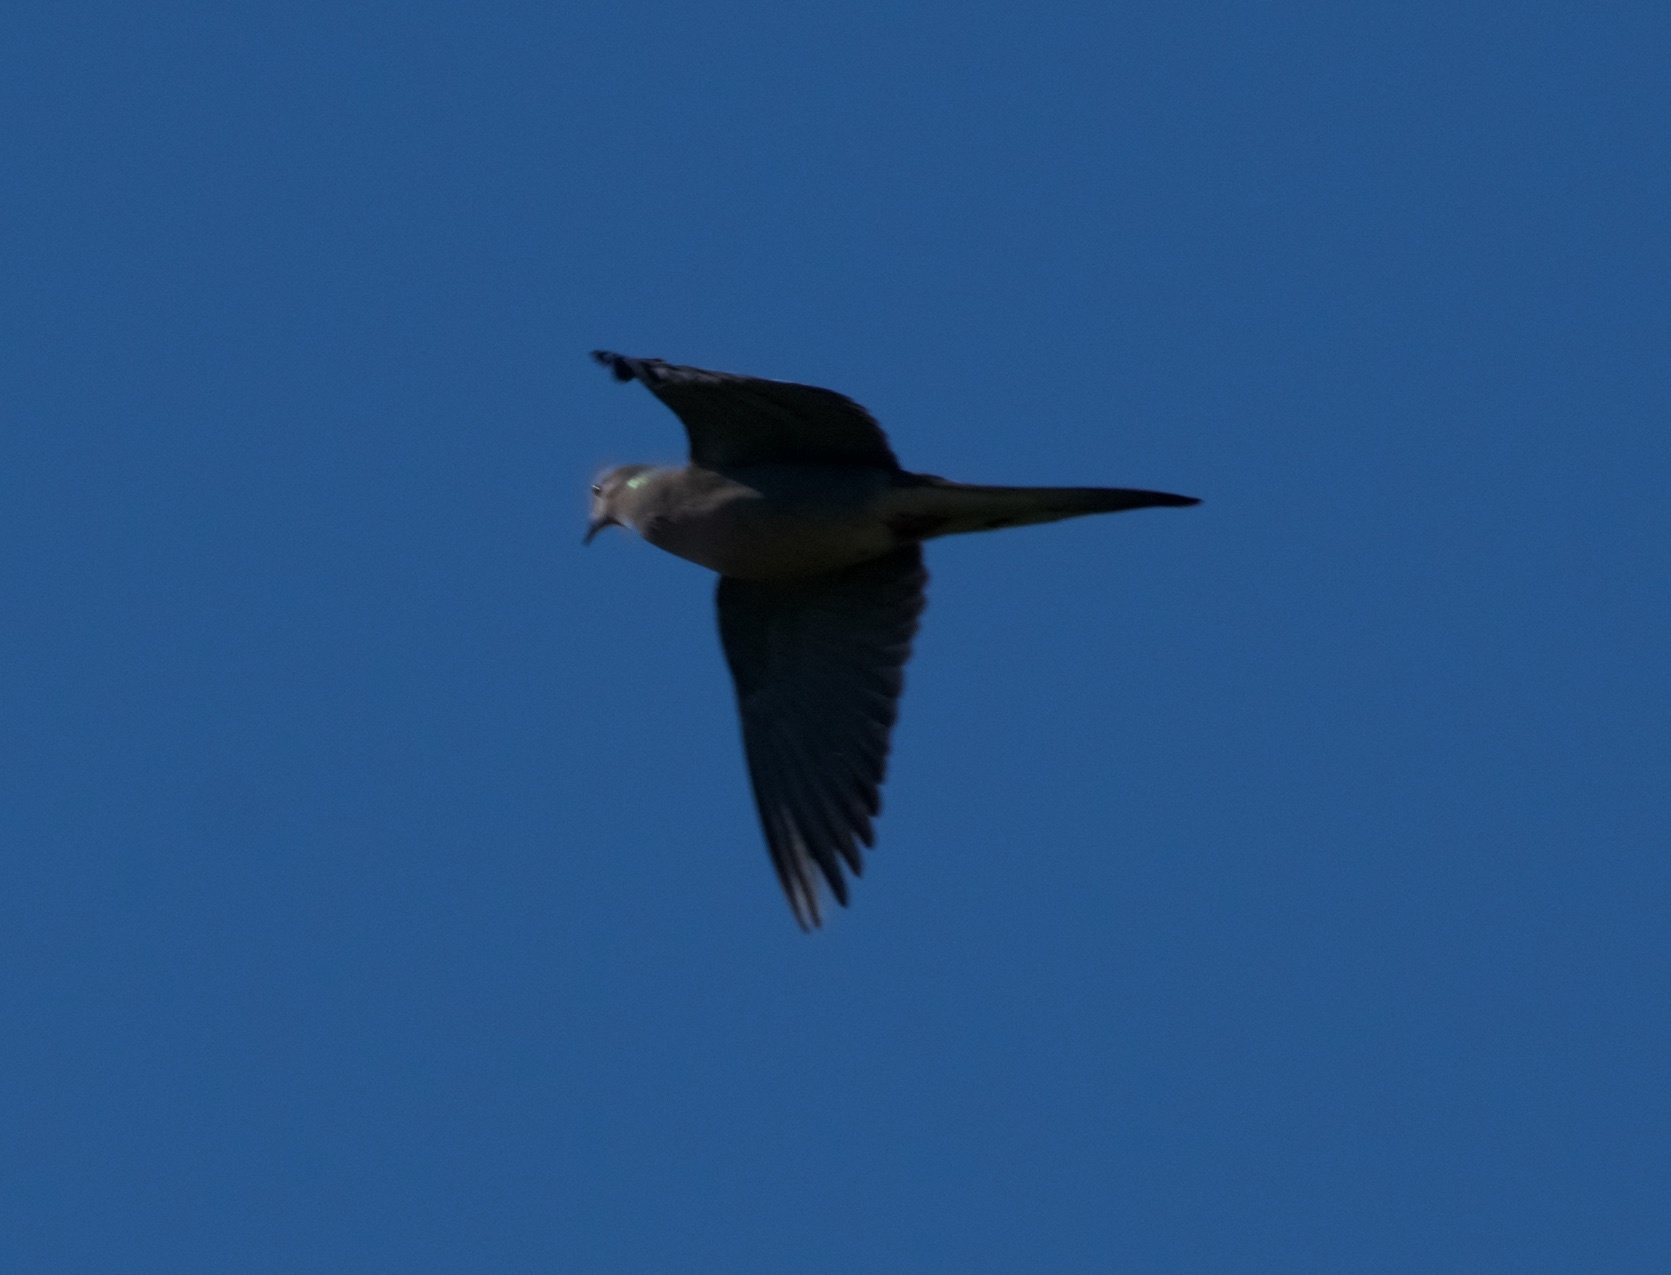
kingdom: Animalia
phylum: Chordata
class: Aves
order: Columbiformes
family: Columbidae
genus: Zenaida
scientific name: Zenaida macroura
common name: Mourning dove
